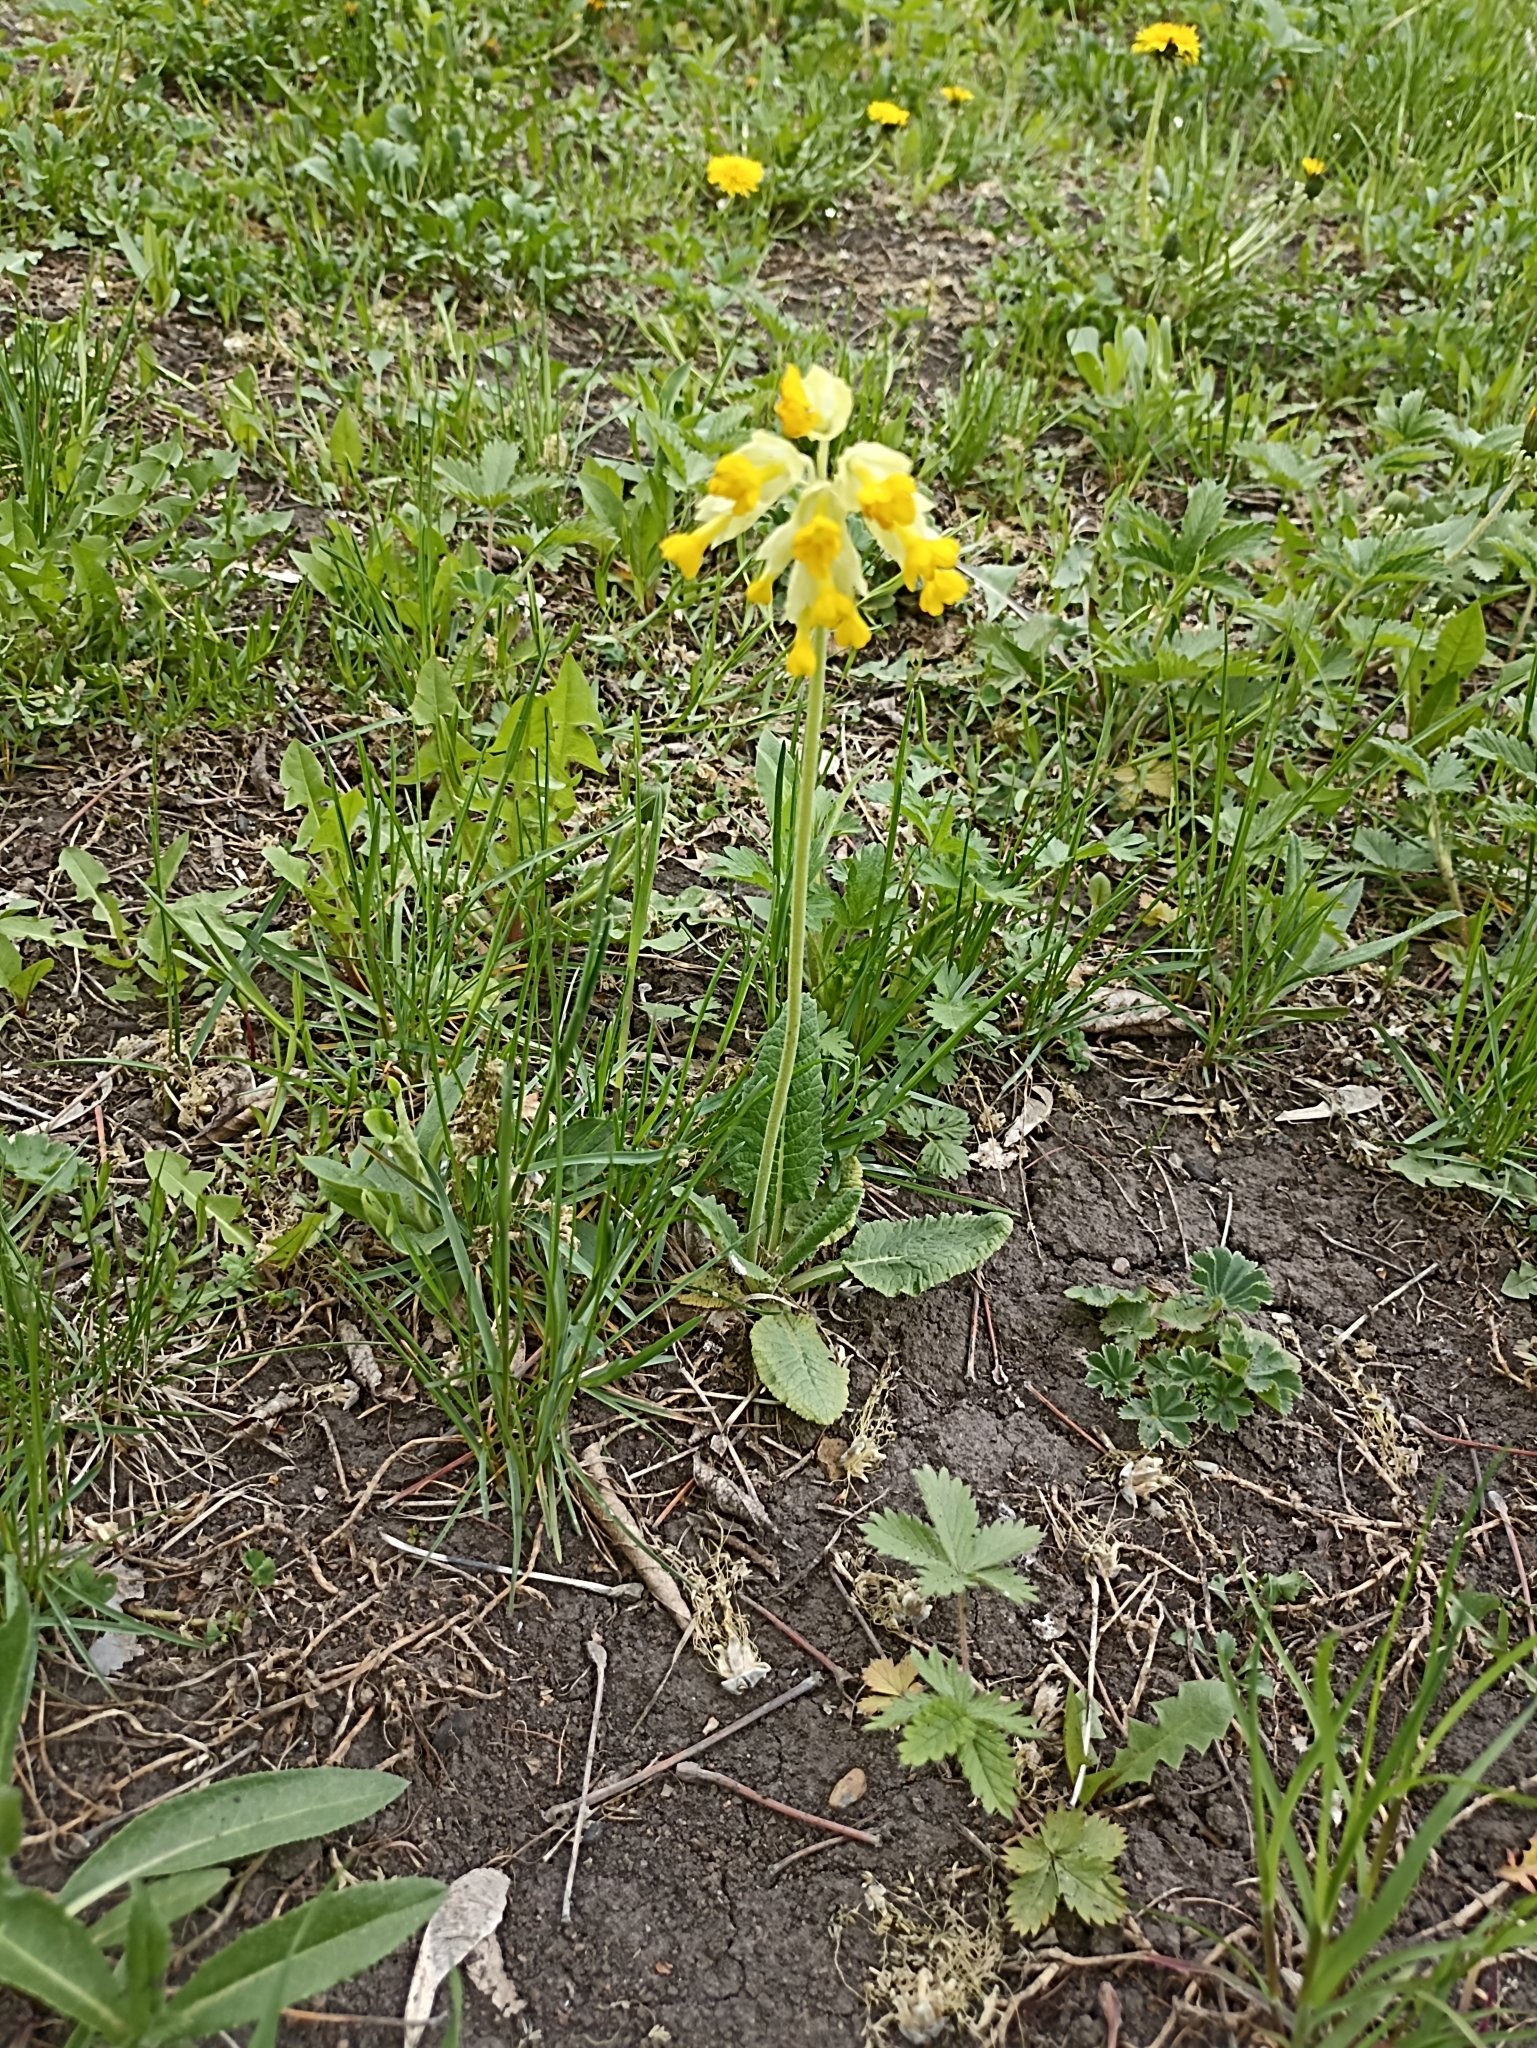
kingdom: Plantae
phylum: Tracheophyta
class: Magnoliopsida
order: Ericales
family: Primulaceae
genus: Primula
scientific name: Primula veris
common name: Cowslip
